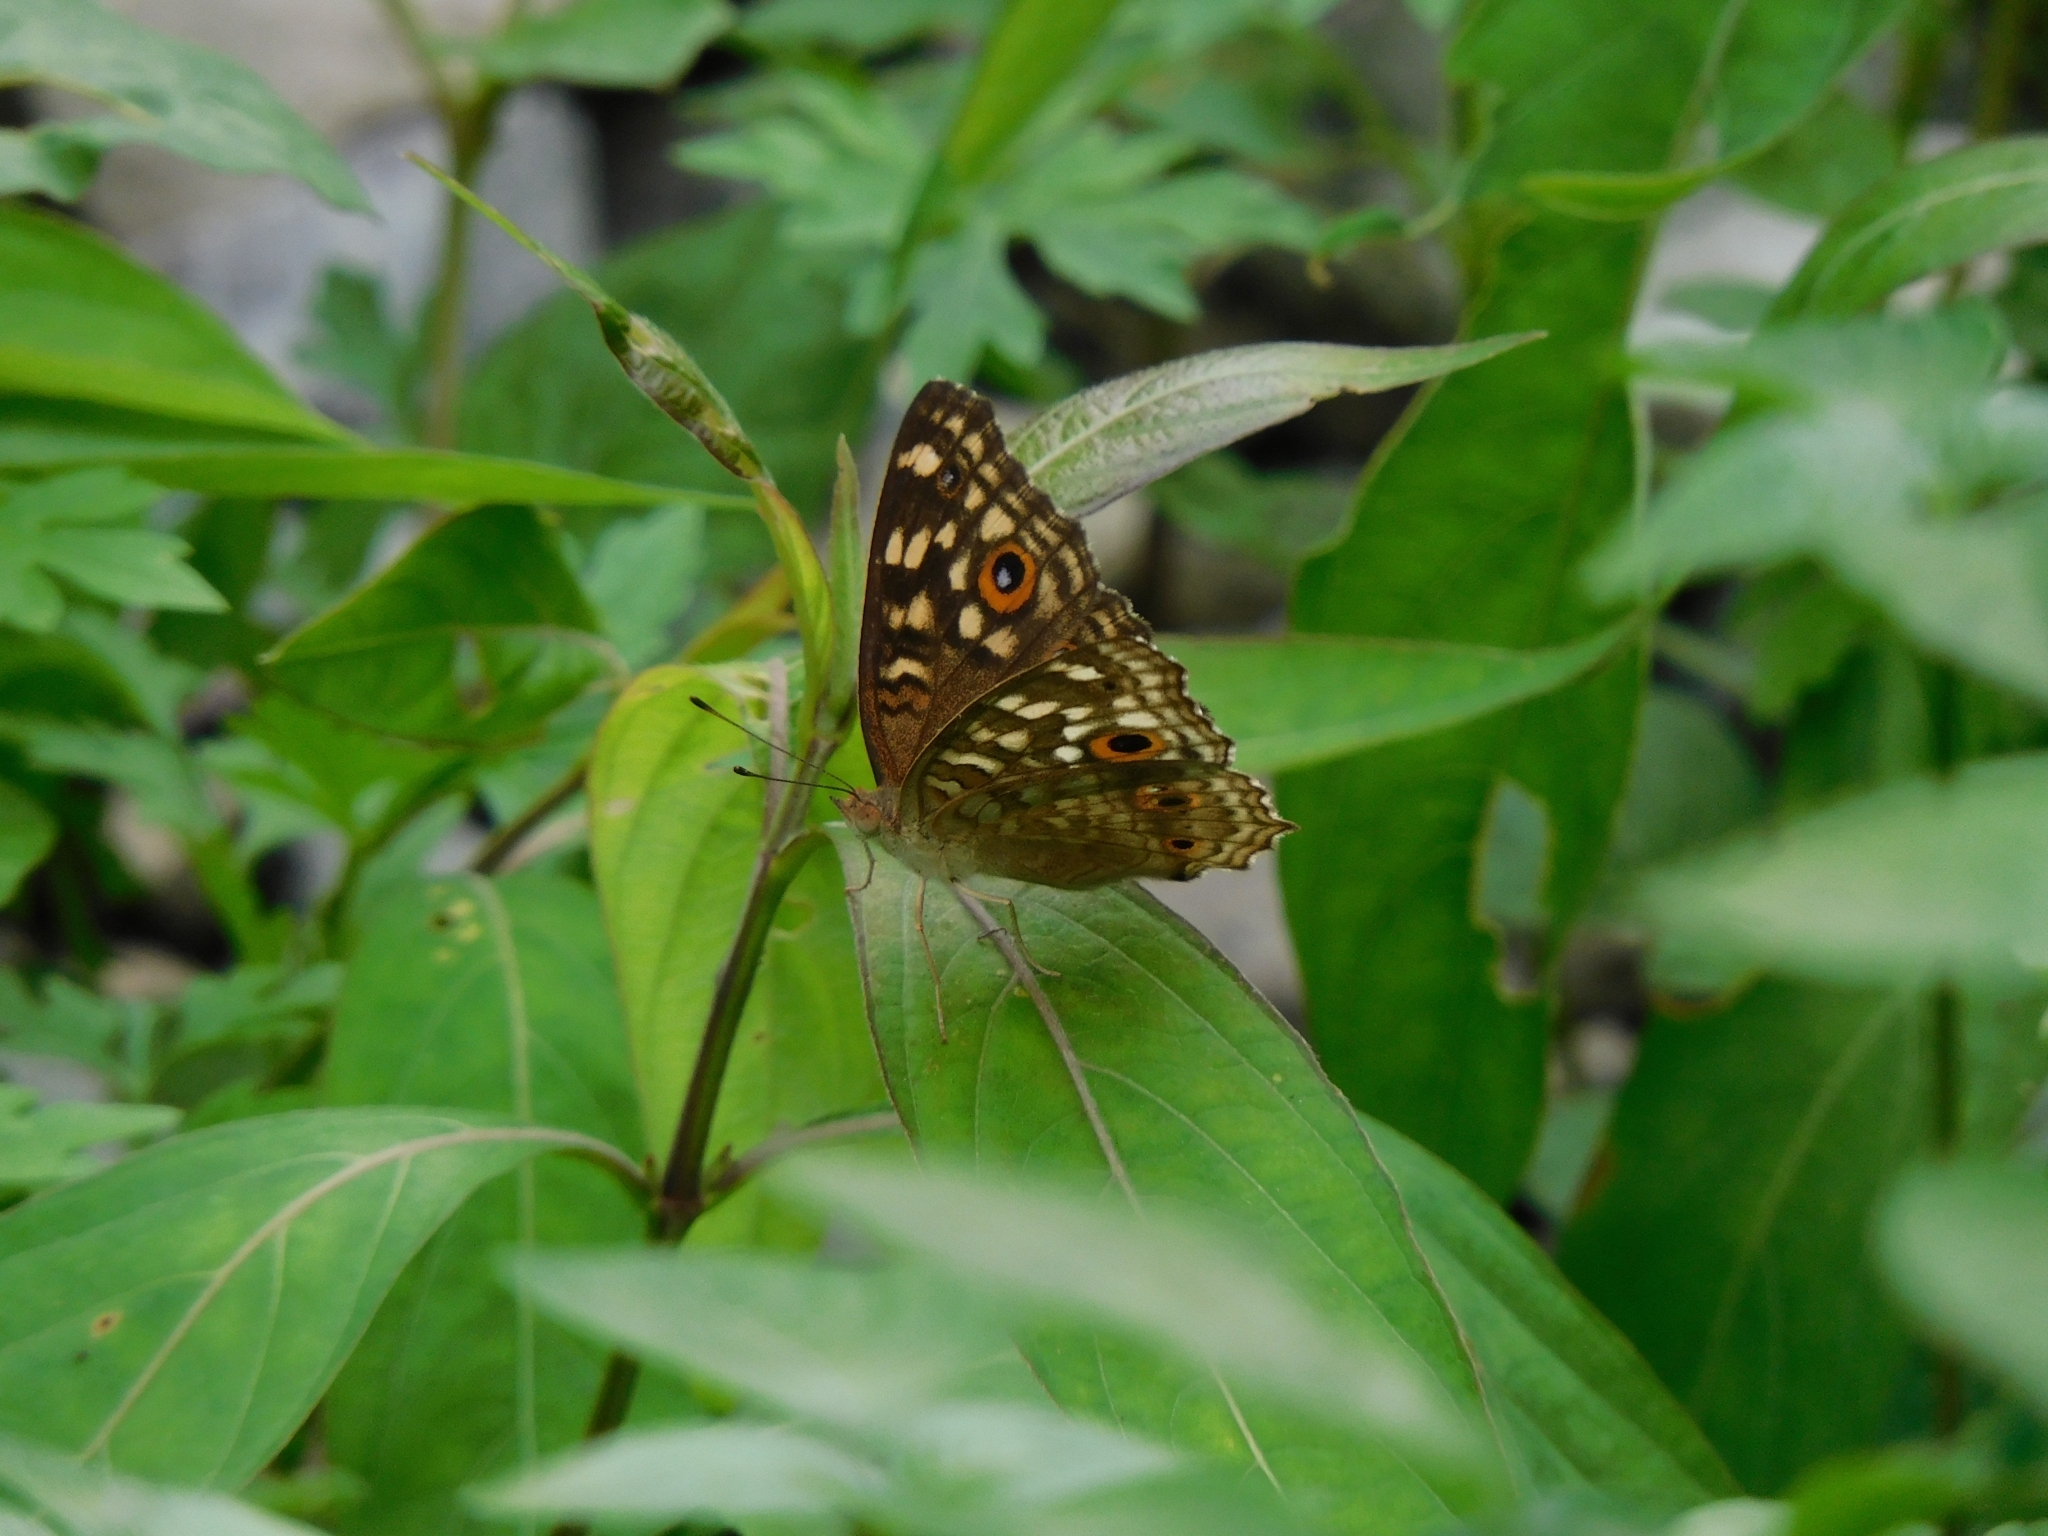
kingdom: Animalia
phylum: Arthropoda
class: Insecta
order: Lepidoptera
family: Nymphalidae
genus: Junonia
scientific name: Junonia lemonias
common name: Lemon pansy
